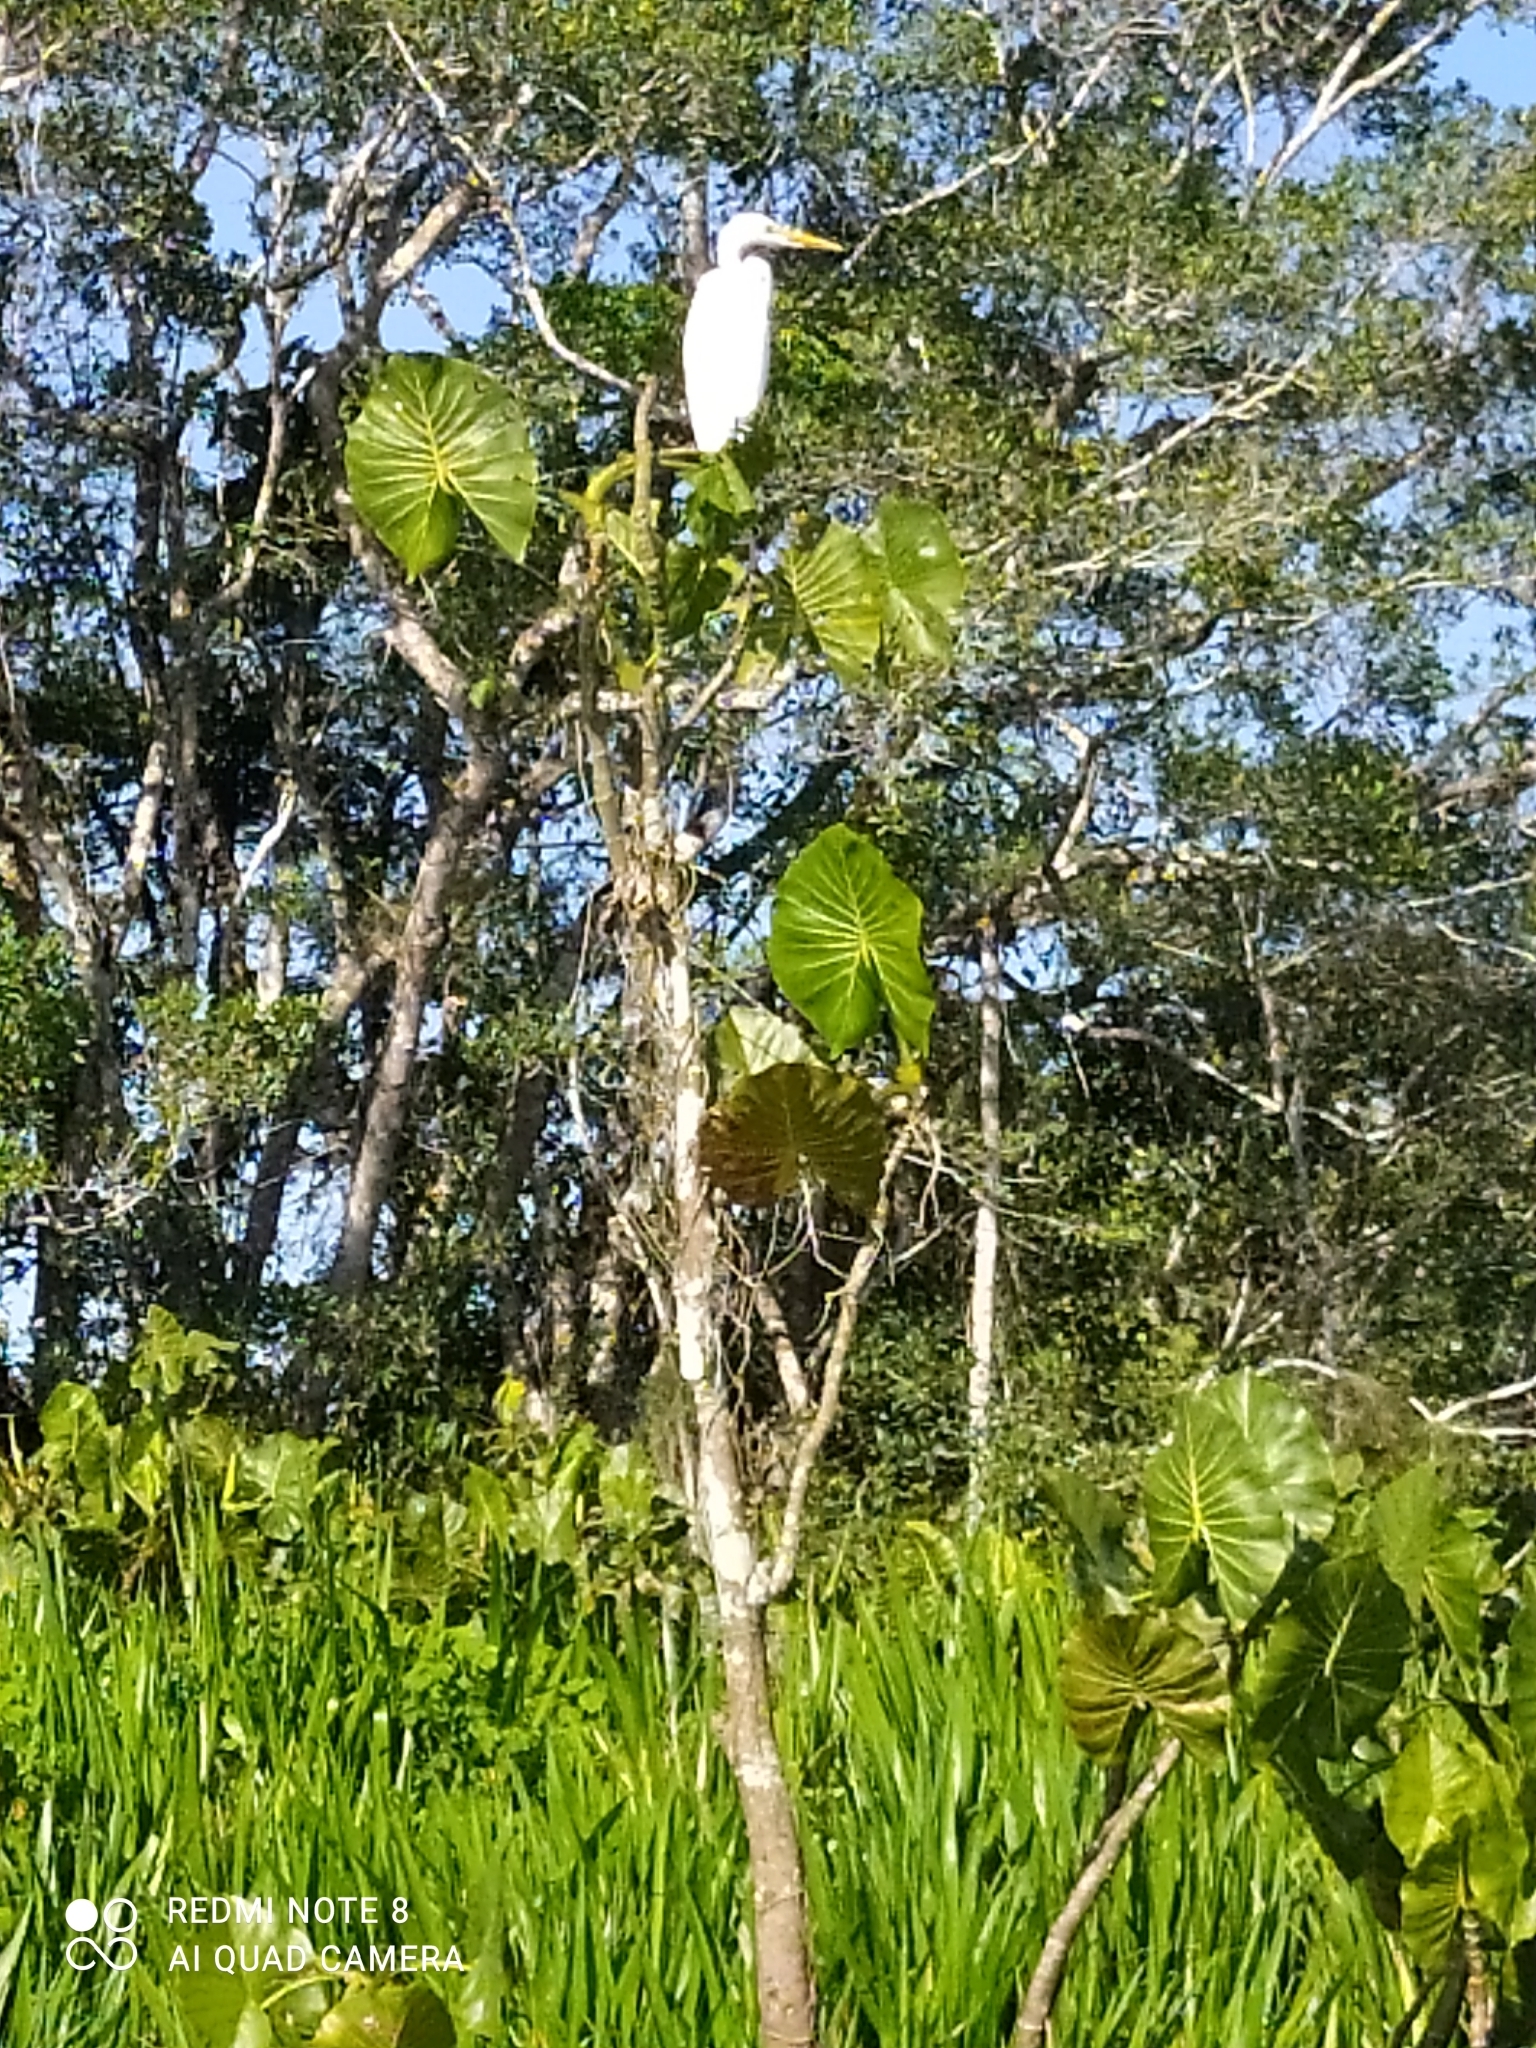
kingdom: Animalia
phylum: Chordata
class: Aves
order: Pelecaniformes
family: Ardeidae
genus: Ardea
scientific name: Ardea alba
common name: Great egret
